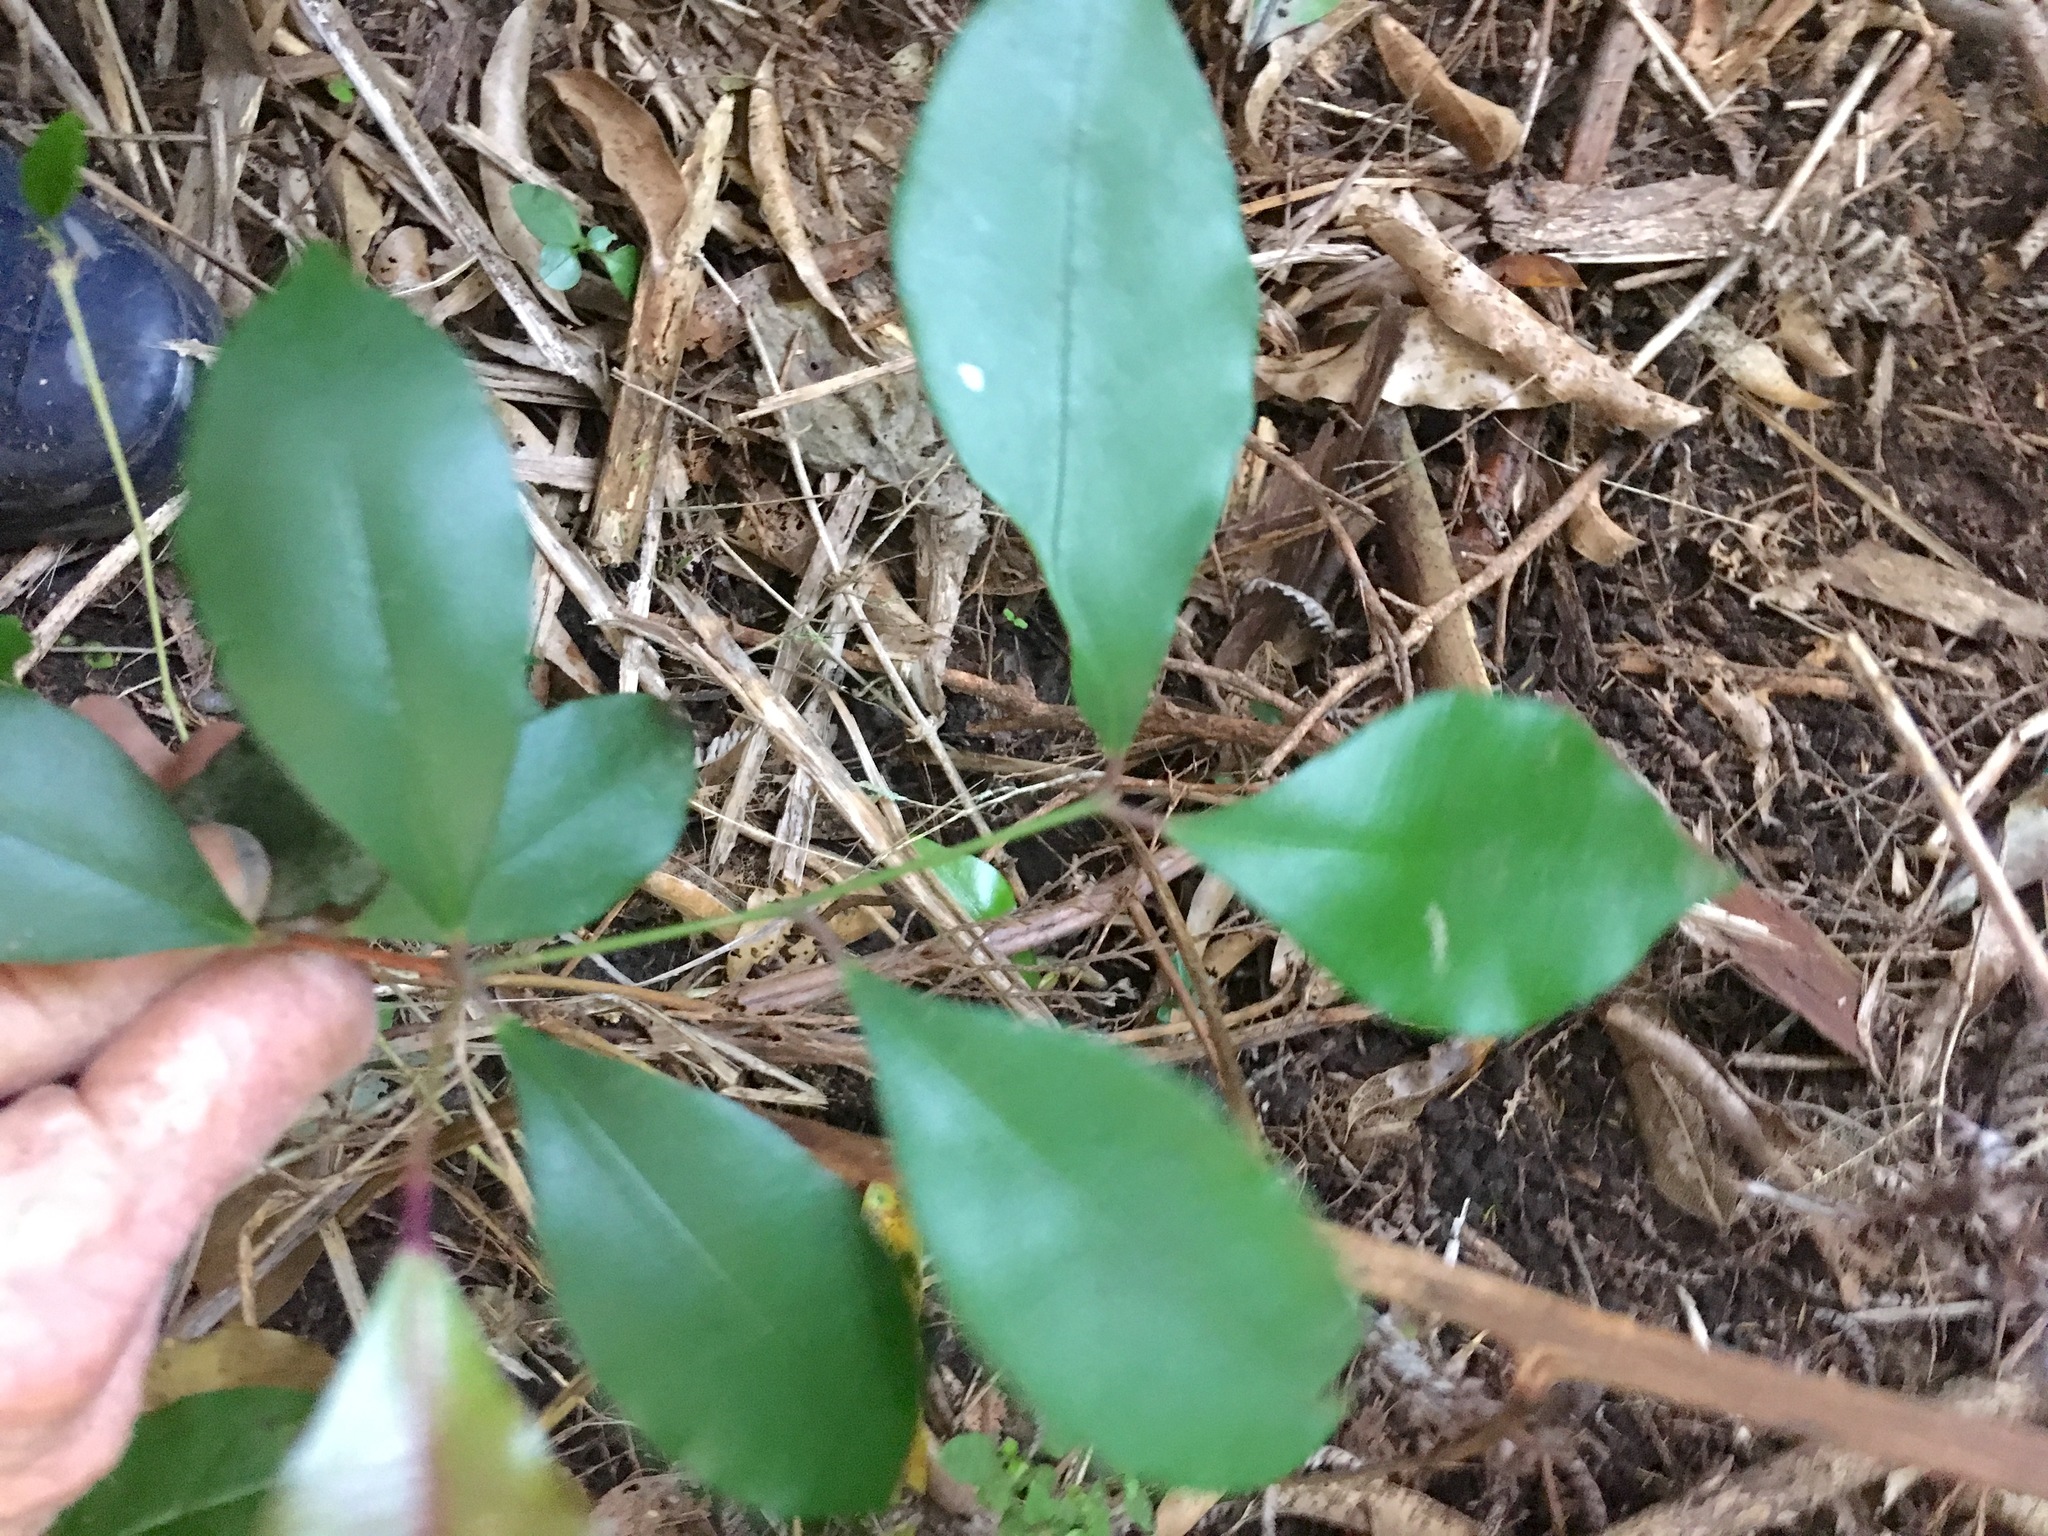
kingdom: Plantae
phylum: Tracheophyta
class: Magnoliopsida
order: Myrtales
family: Myrtaceae
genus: Syzygium
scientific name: Syzygium smithii
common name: Lilly-pilly
